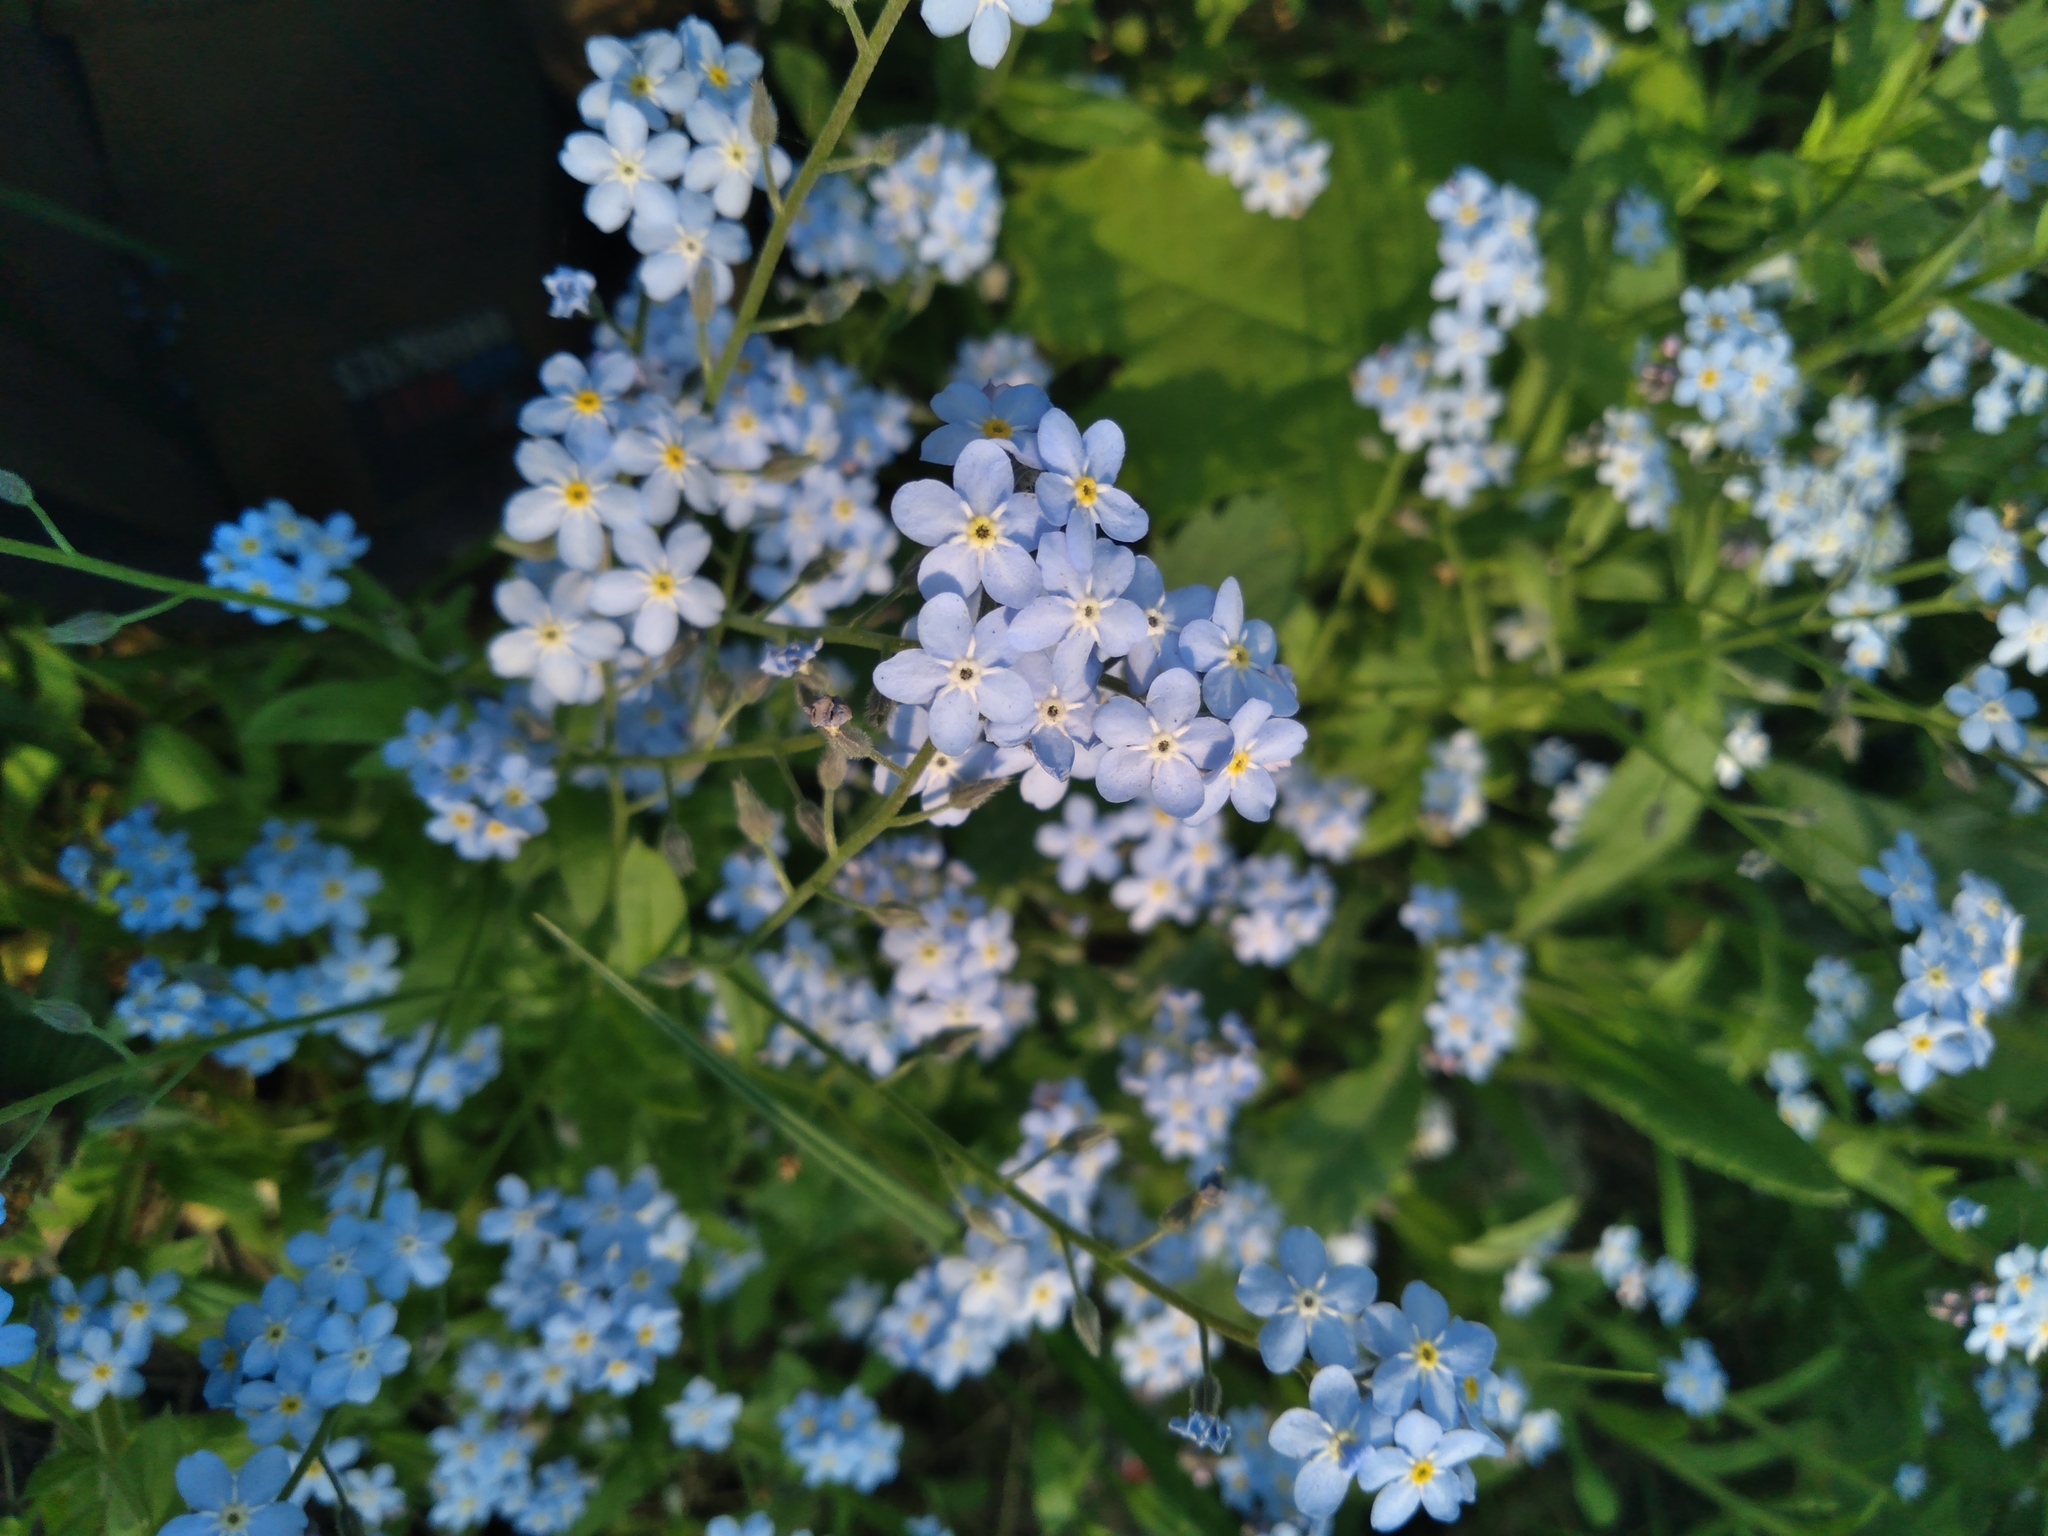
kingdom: Plantae
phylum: Tracheophyta
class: Magnoliopsida
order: Boraginales
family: Boraginaceae
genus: Myosotis
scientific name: Myosotis sylvatica
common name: Wood forget-me-not
